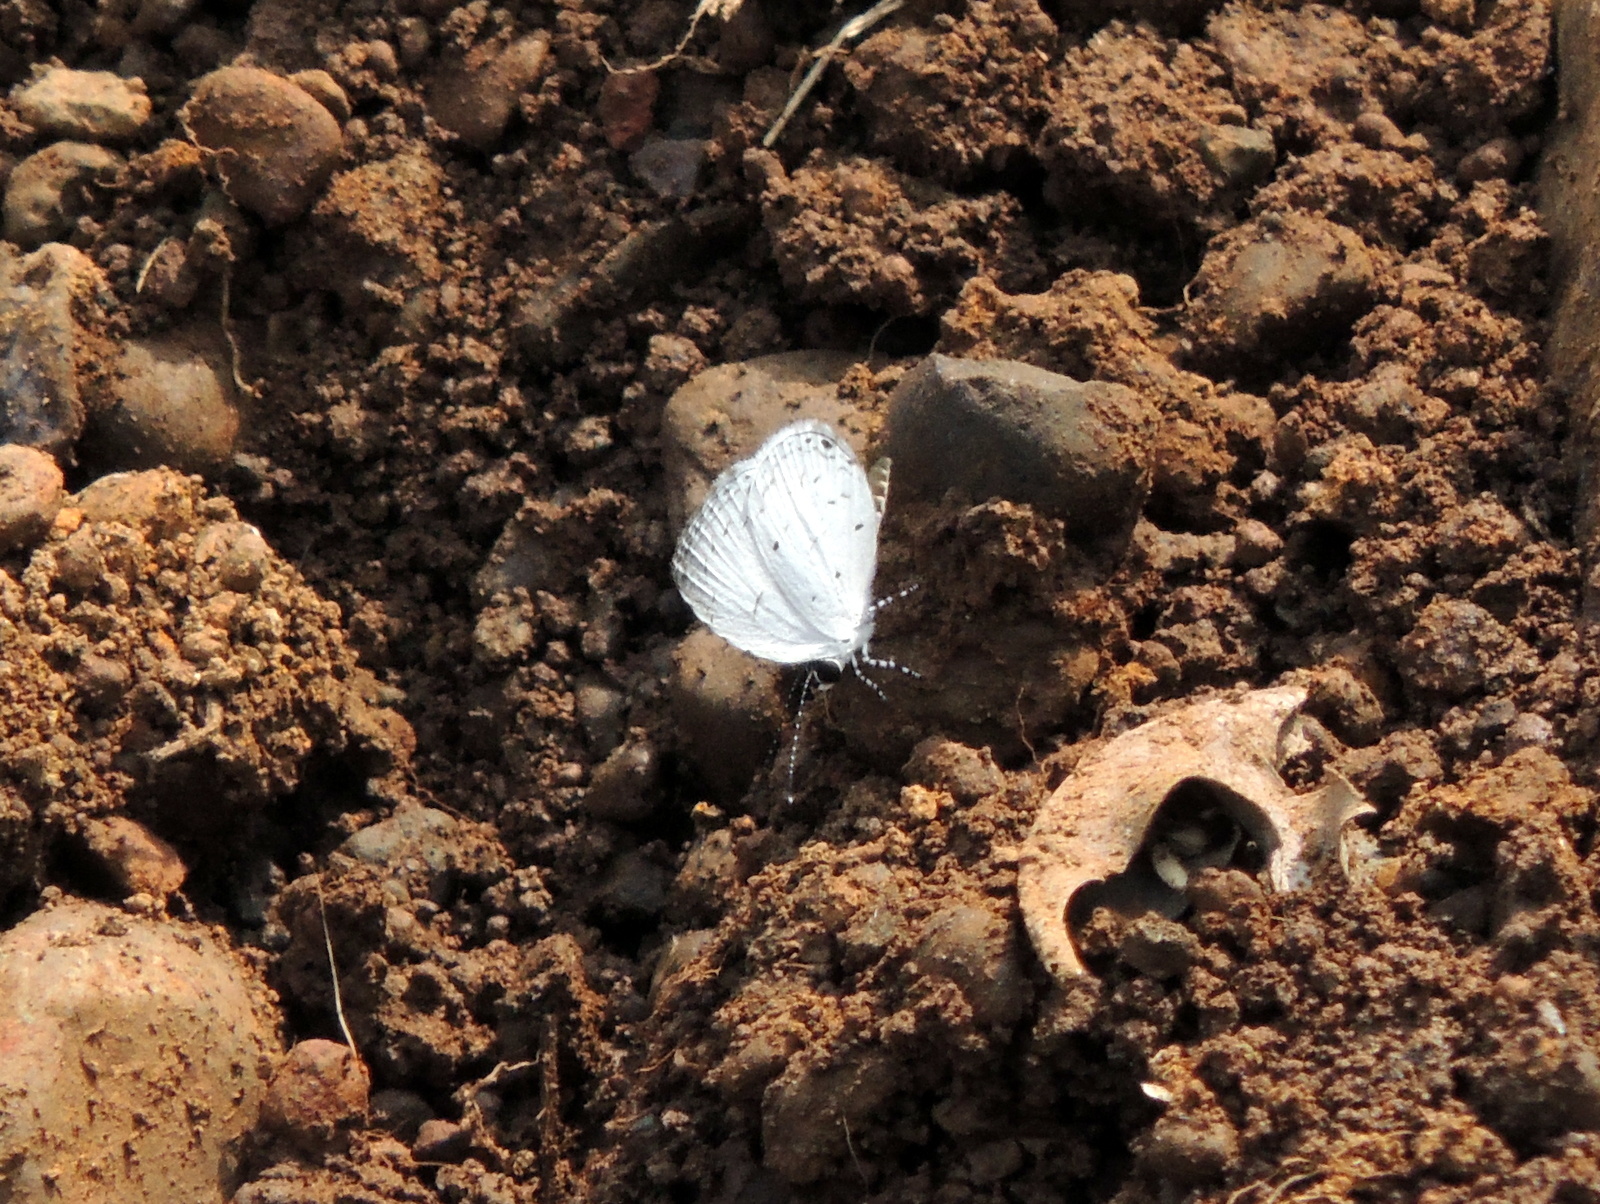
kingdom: Animalia
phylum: Arthropoda
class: Insecta
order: Lepidoptera
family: Lycaenidae
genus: Neopithecops
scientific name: Neopithecops zalmora
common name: Quaker
